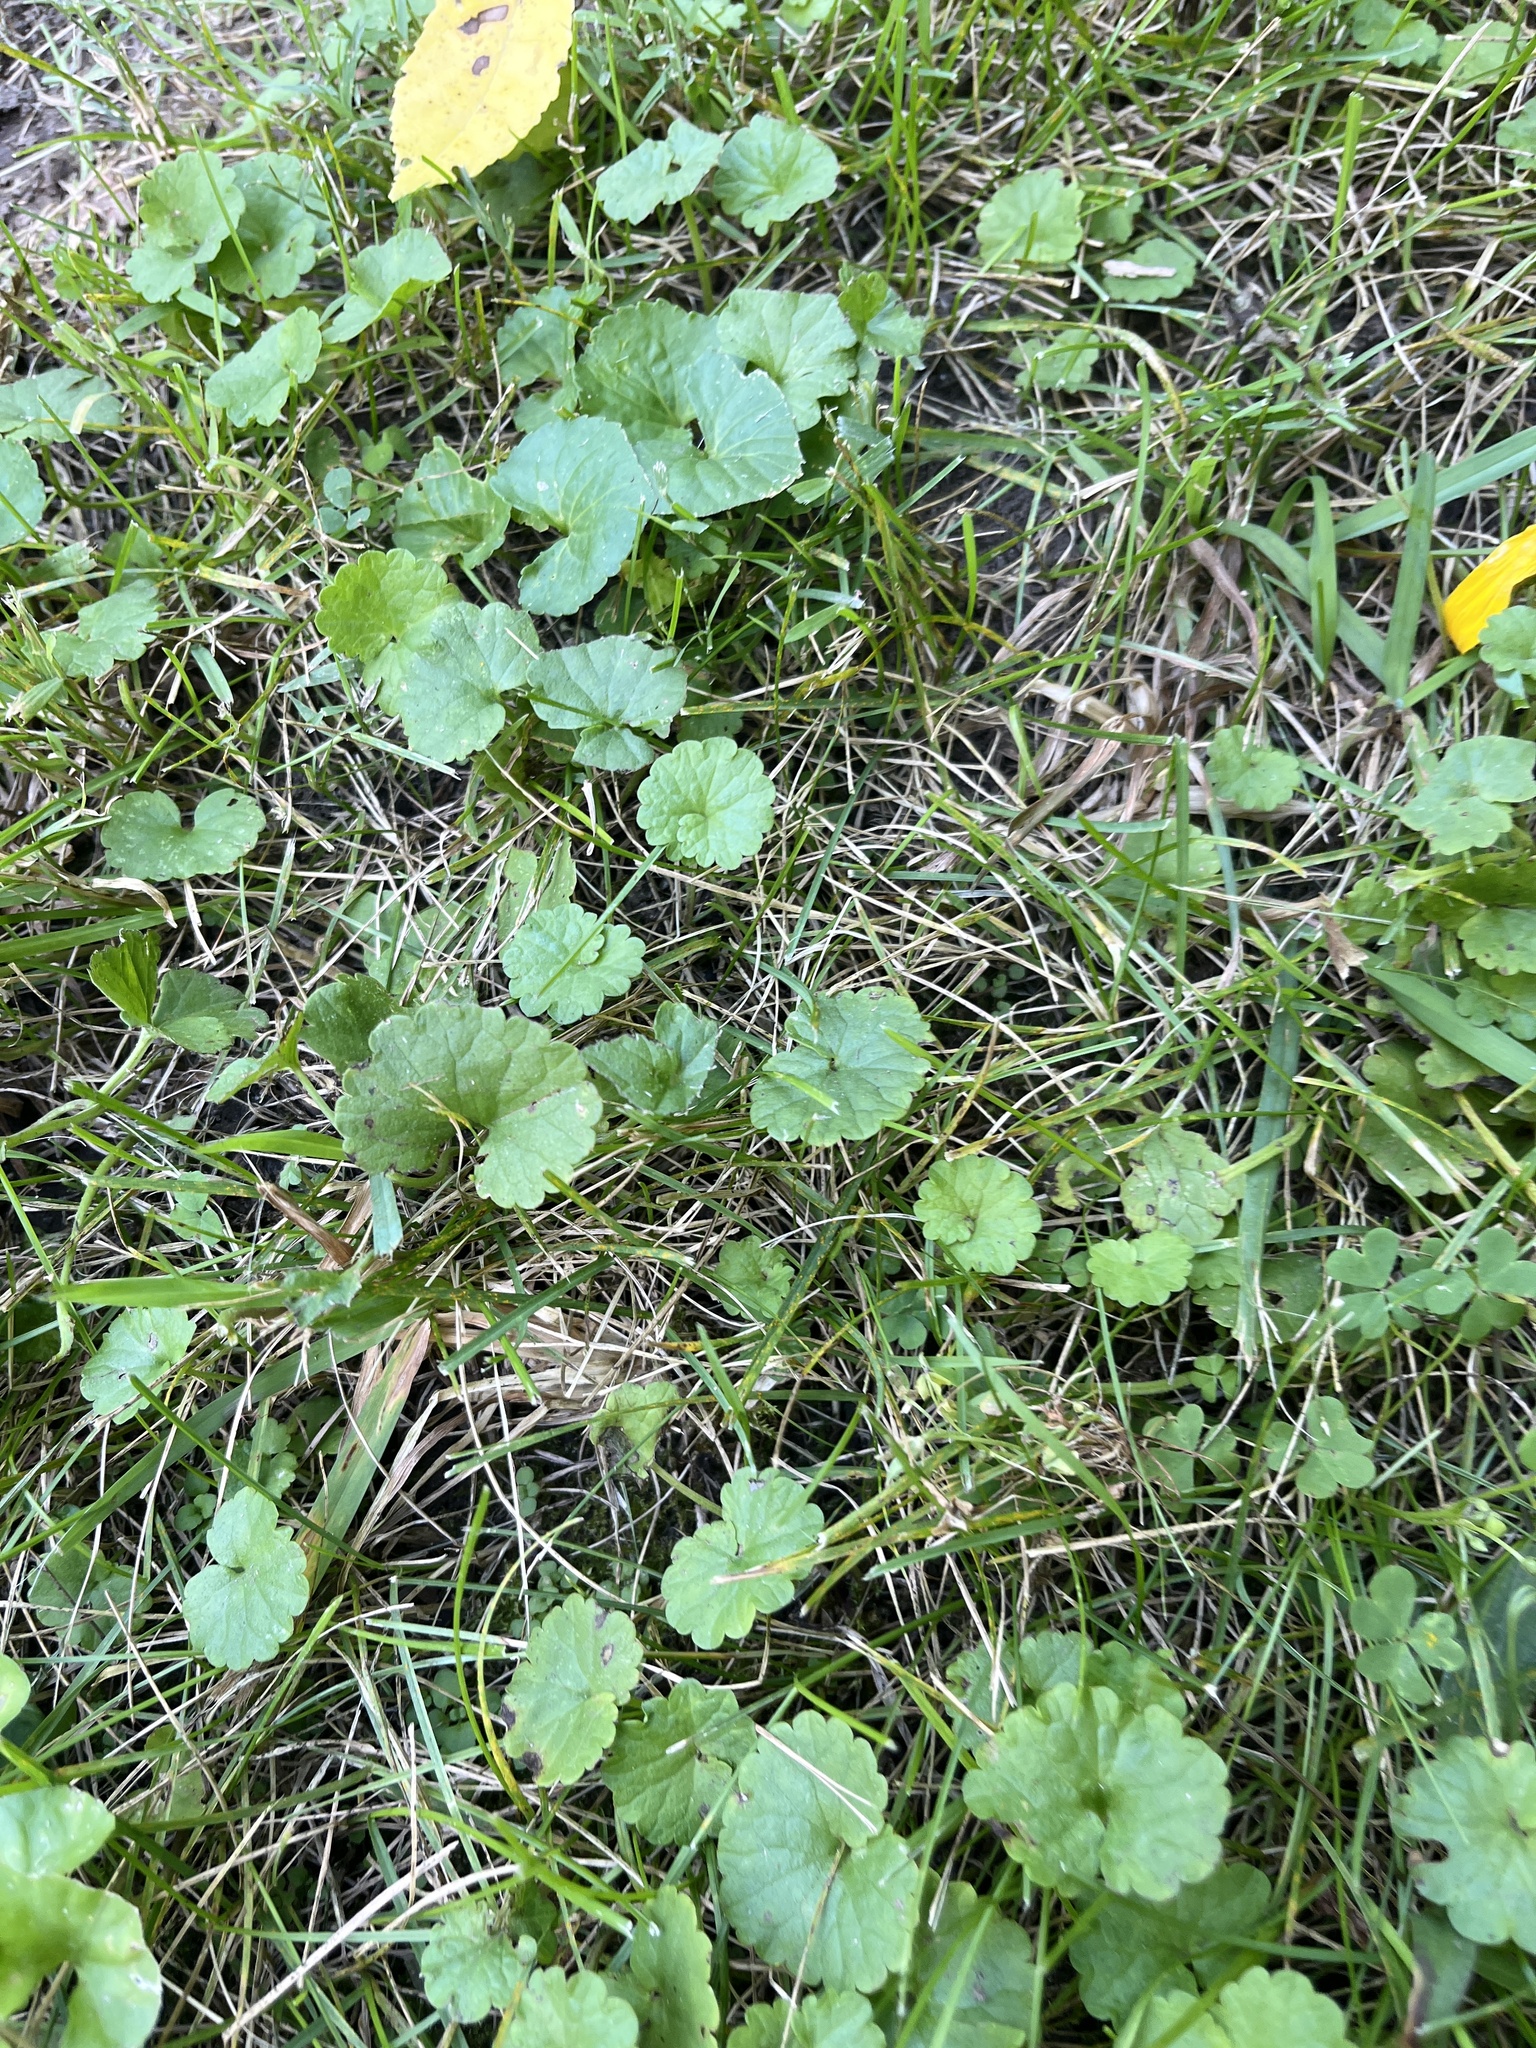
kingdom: Plantae
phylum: Tracheophyta
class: Magnoliopsida
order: Lamiales
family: Lamiaceae
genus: Glechoma
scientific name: Glechoma hederacea
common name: Ground ivy
